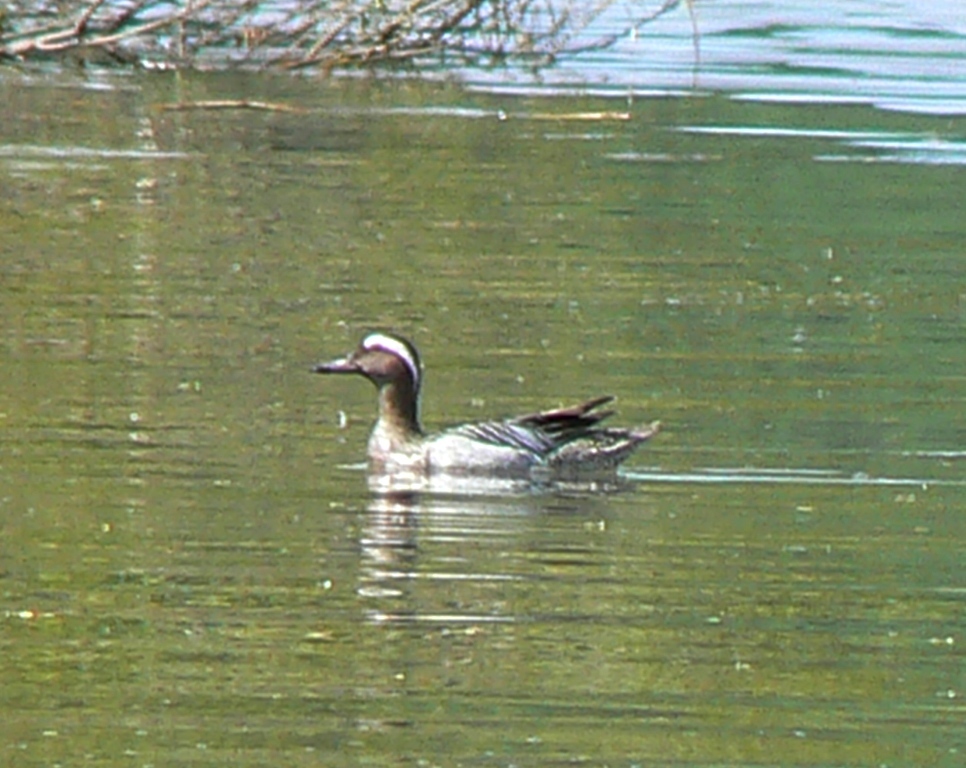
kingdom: Animalia
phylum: Chordata
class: Aves
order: Anseriformes
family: Anatidae
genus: Spatula
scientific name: Spatula querquedula
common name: Garganey
